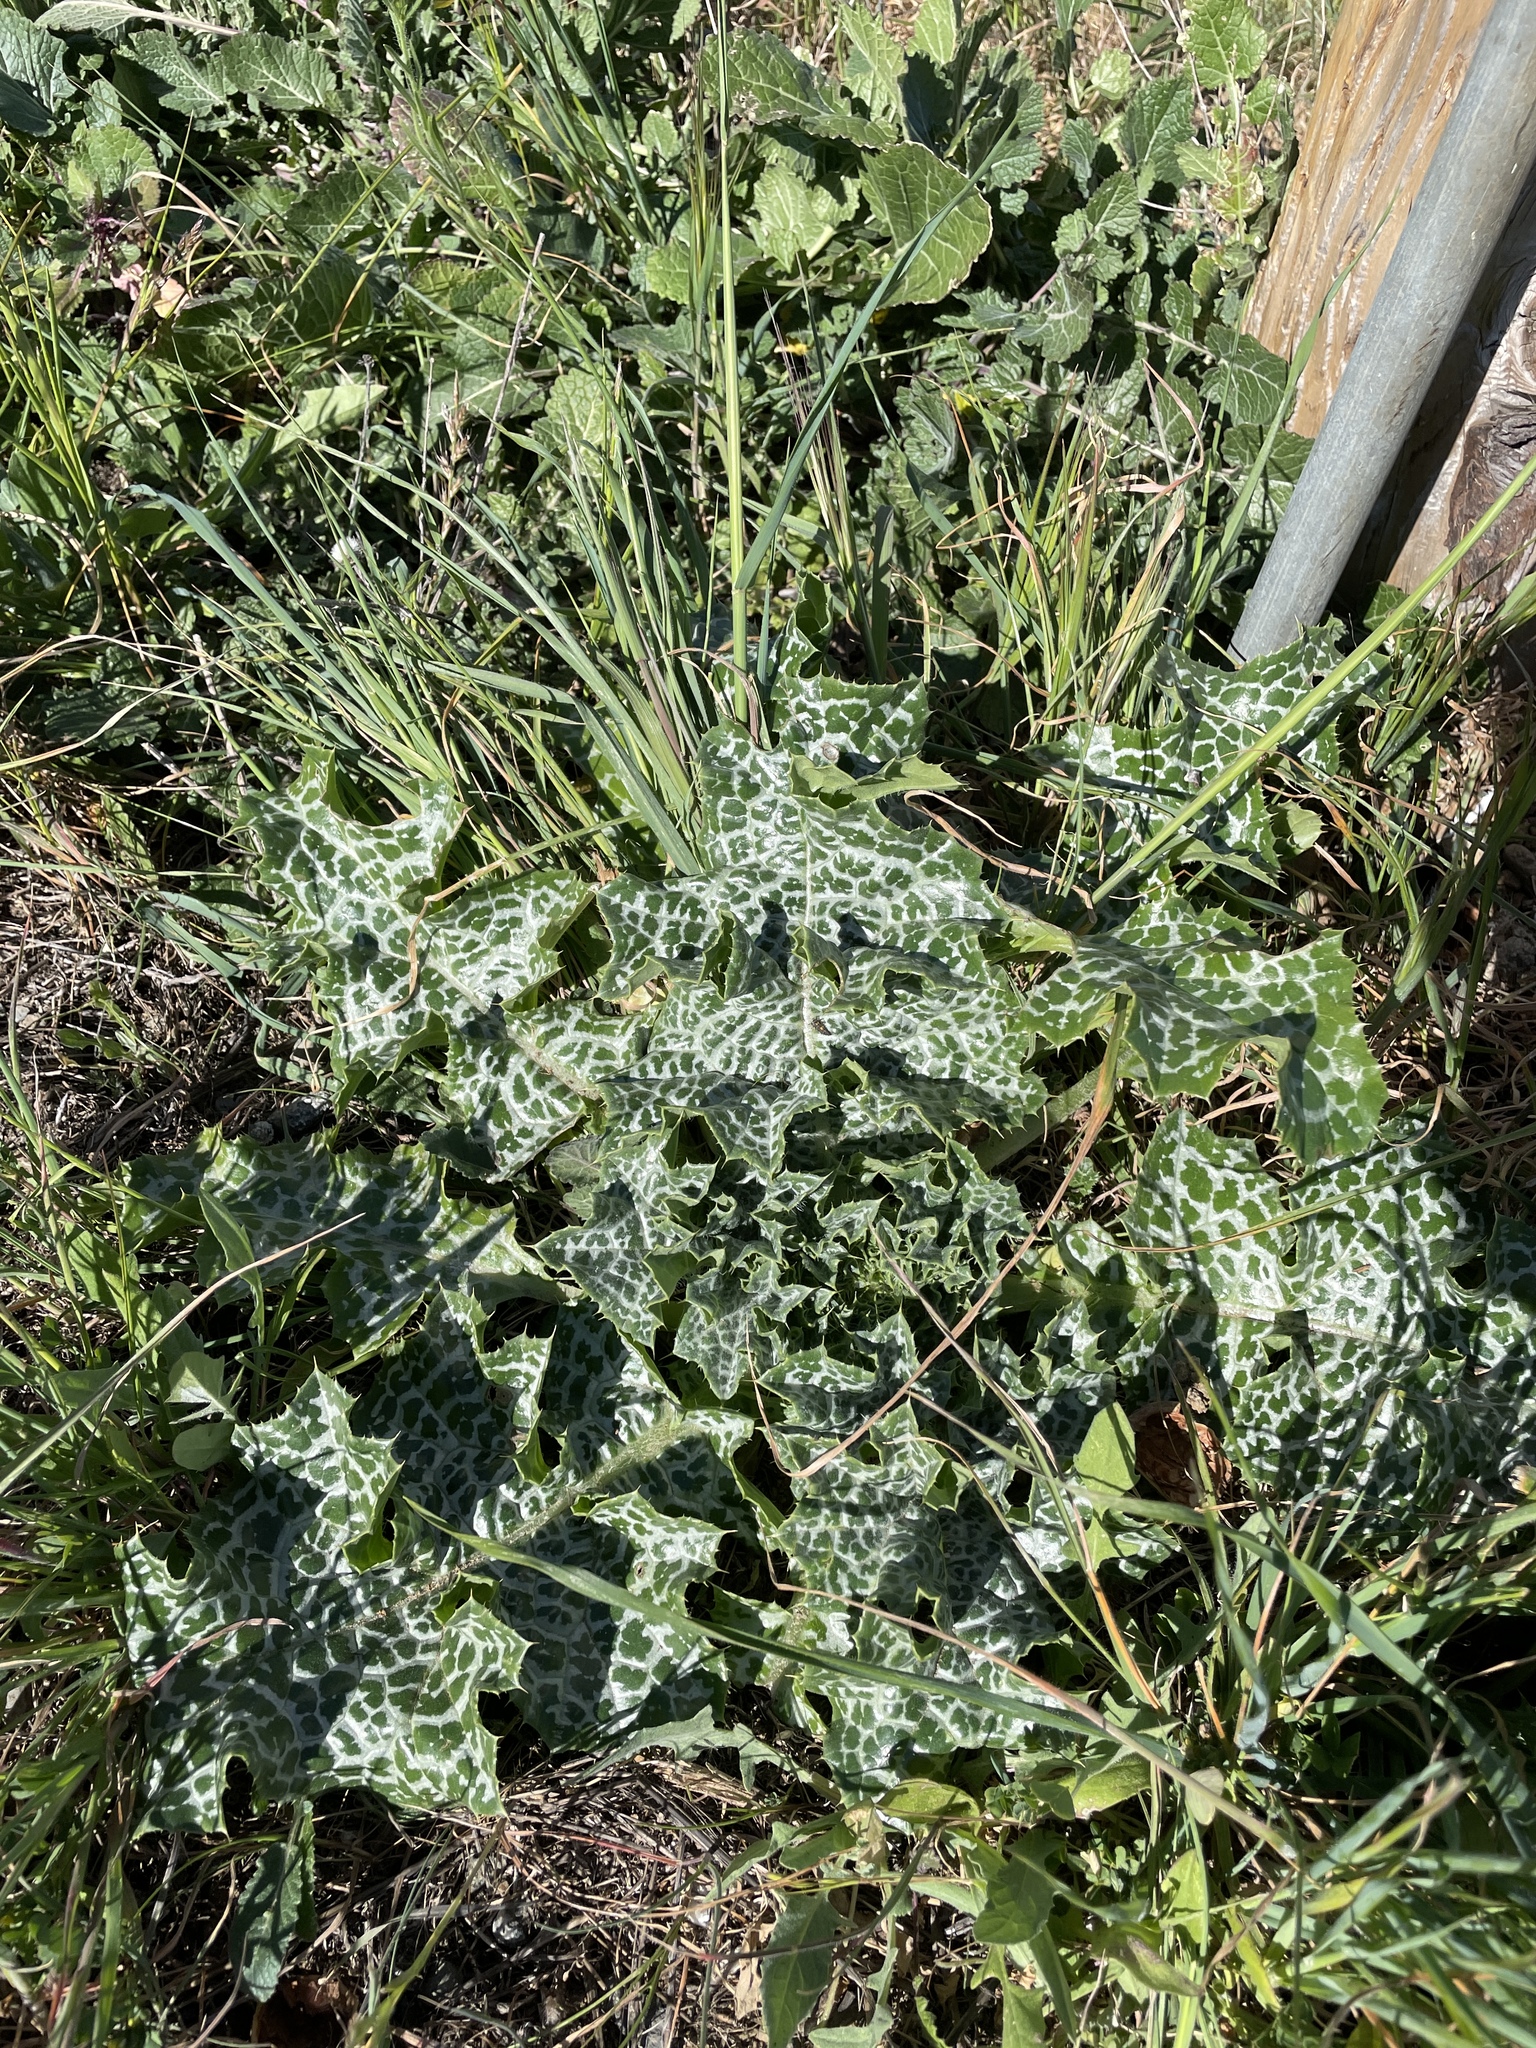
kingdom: Plantae
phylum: Tracheophyta
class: Magnoliopsida
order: Asterales
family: Asteraceae
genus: Silybum
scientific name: Silybum marianum
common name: Milk thistle
